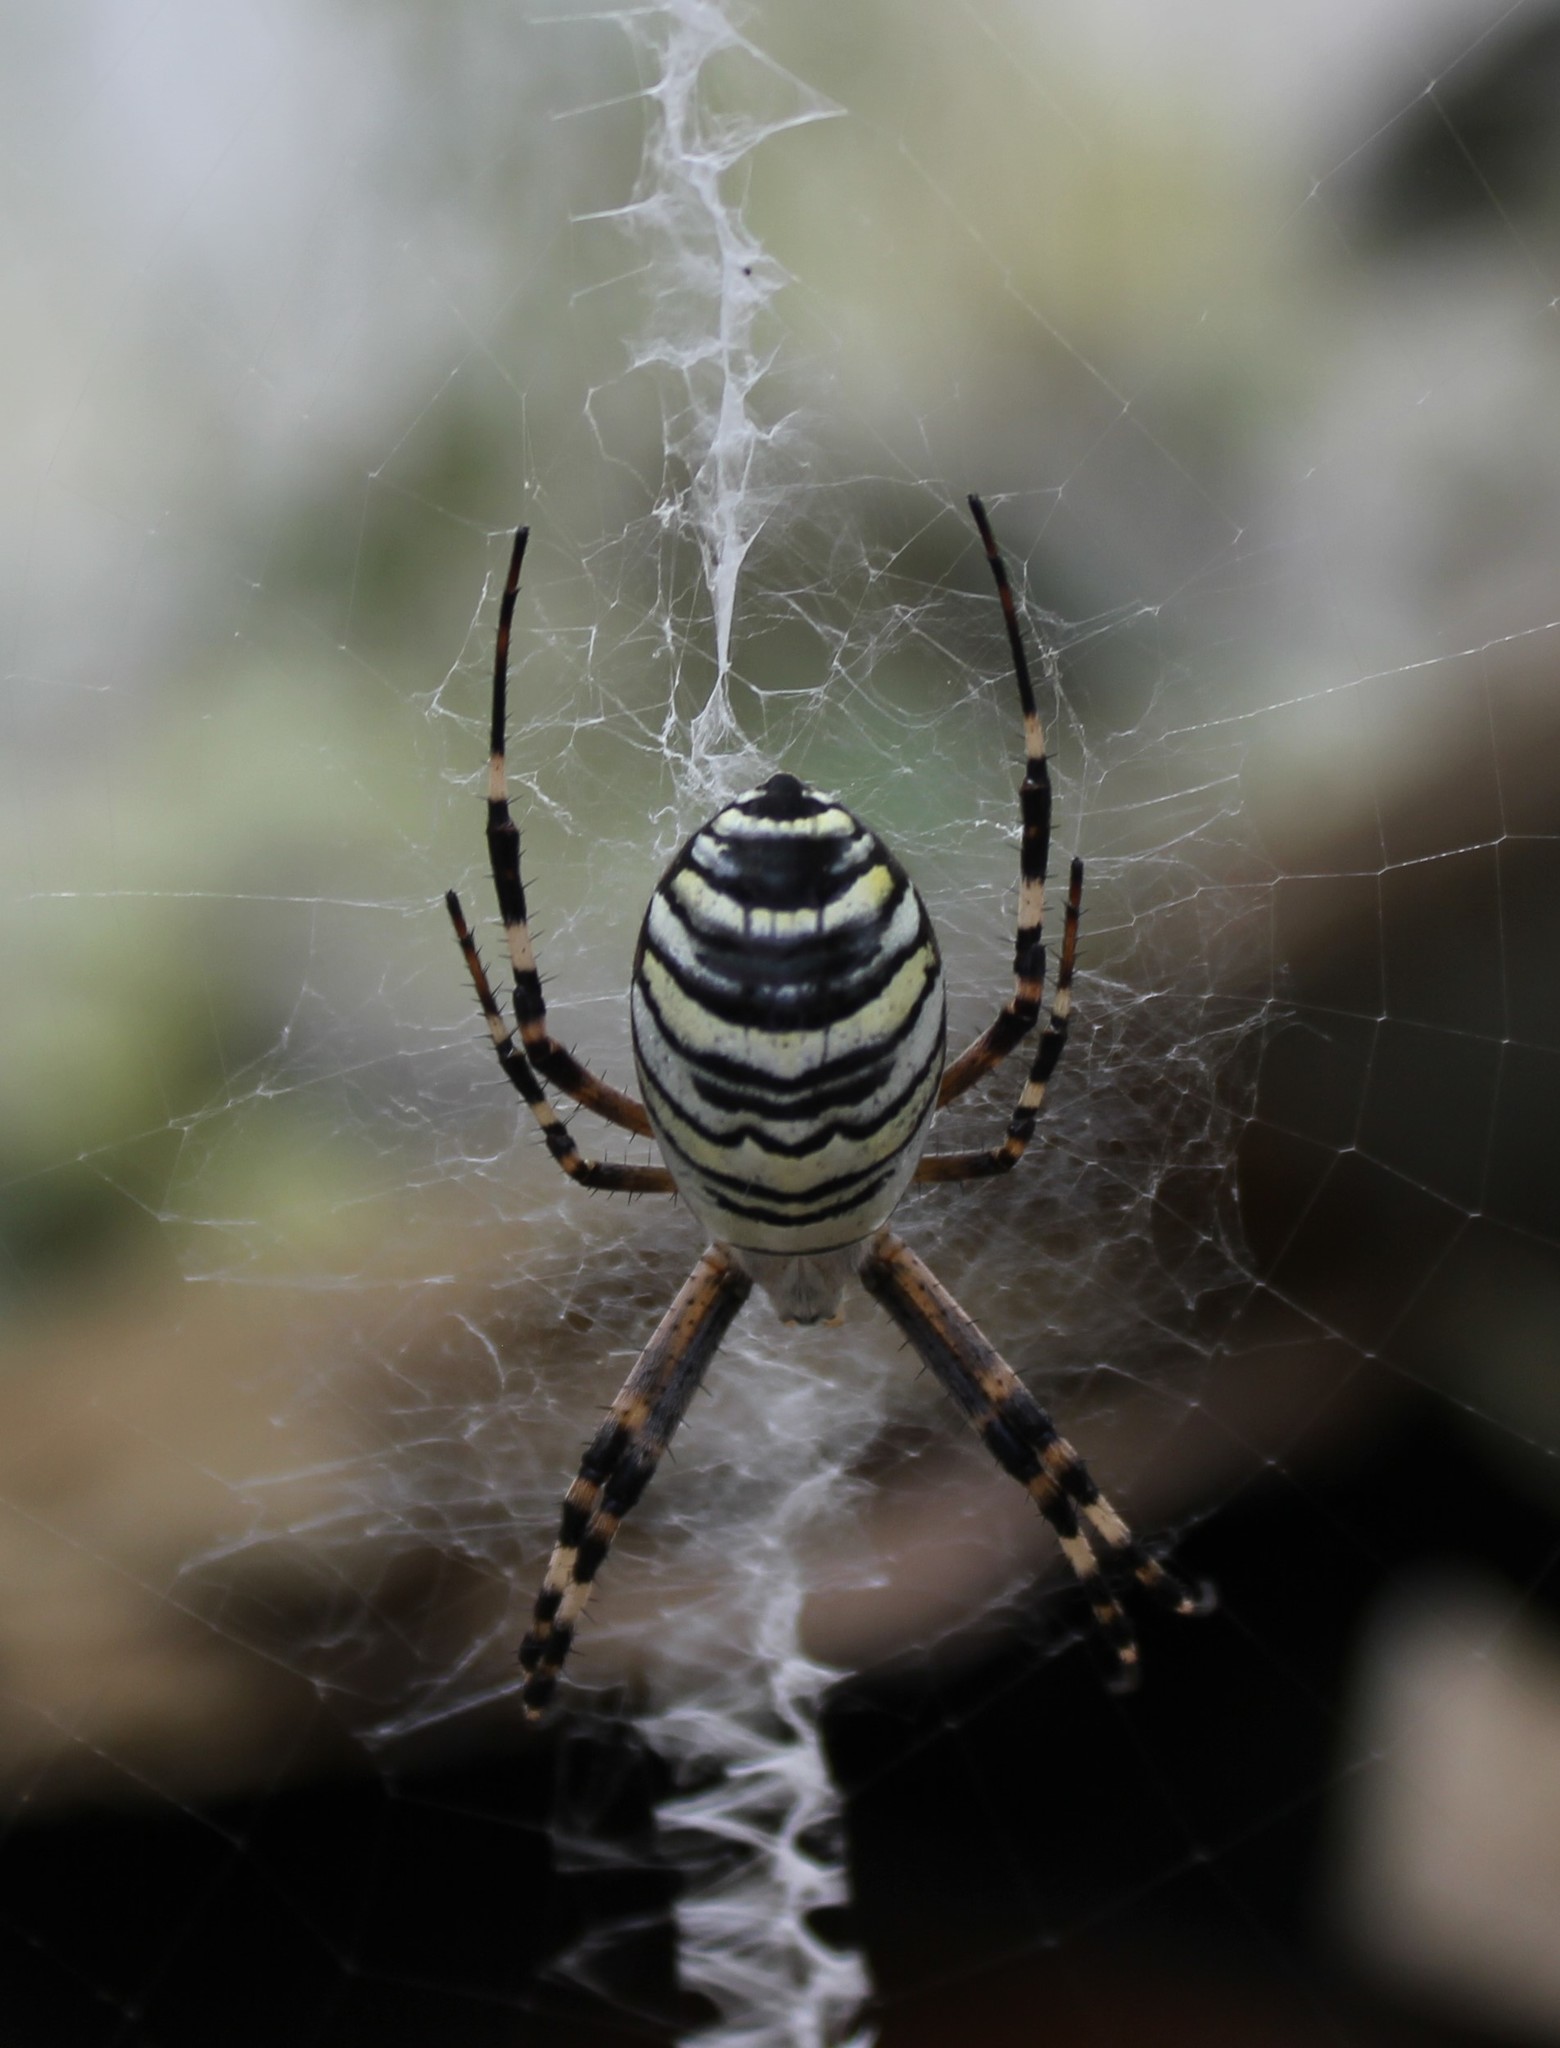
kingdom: Animalia
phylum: Arthropoda
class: Arachnida
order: Araneae
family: Araneidae
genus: Argiope
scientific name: Argiope bruennichi
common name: Wasp spider
